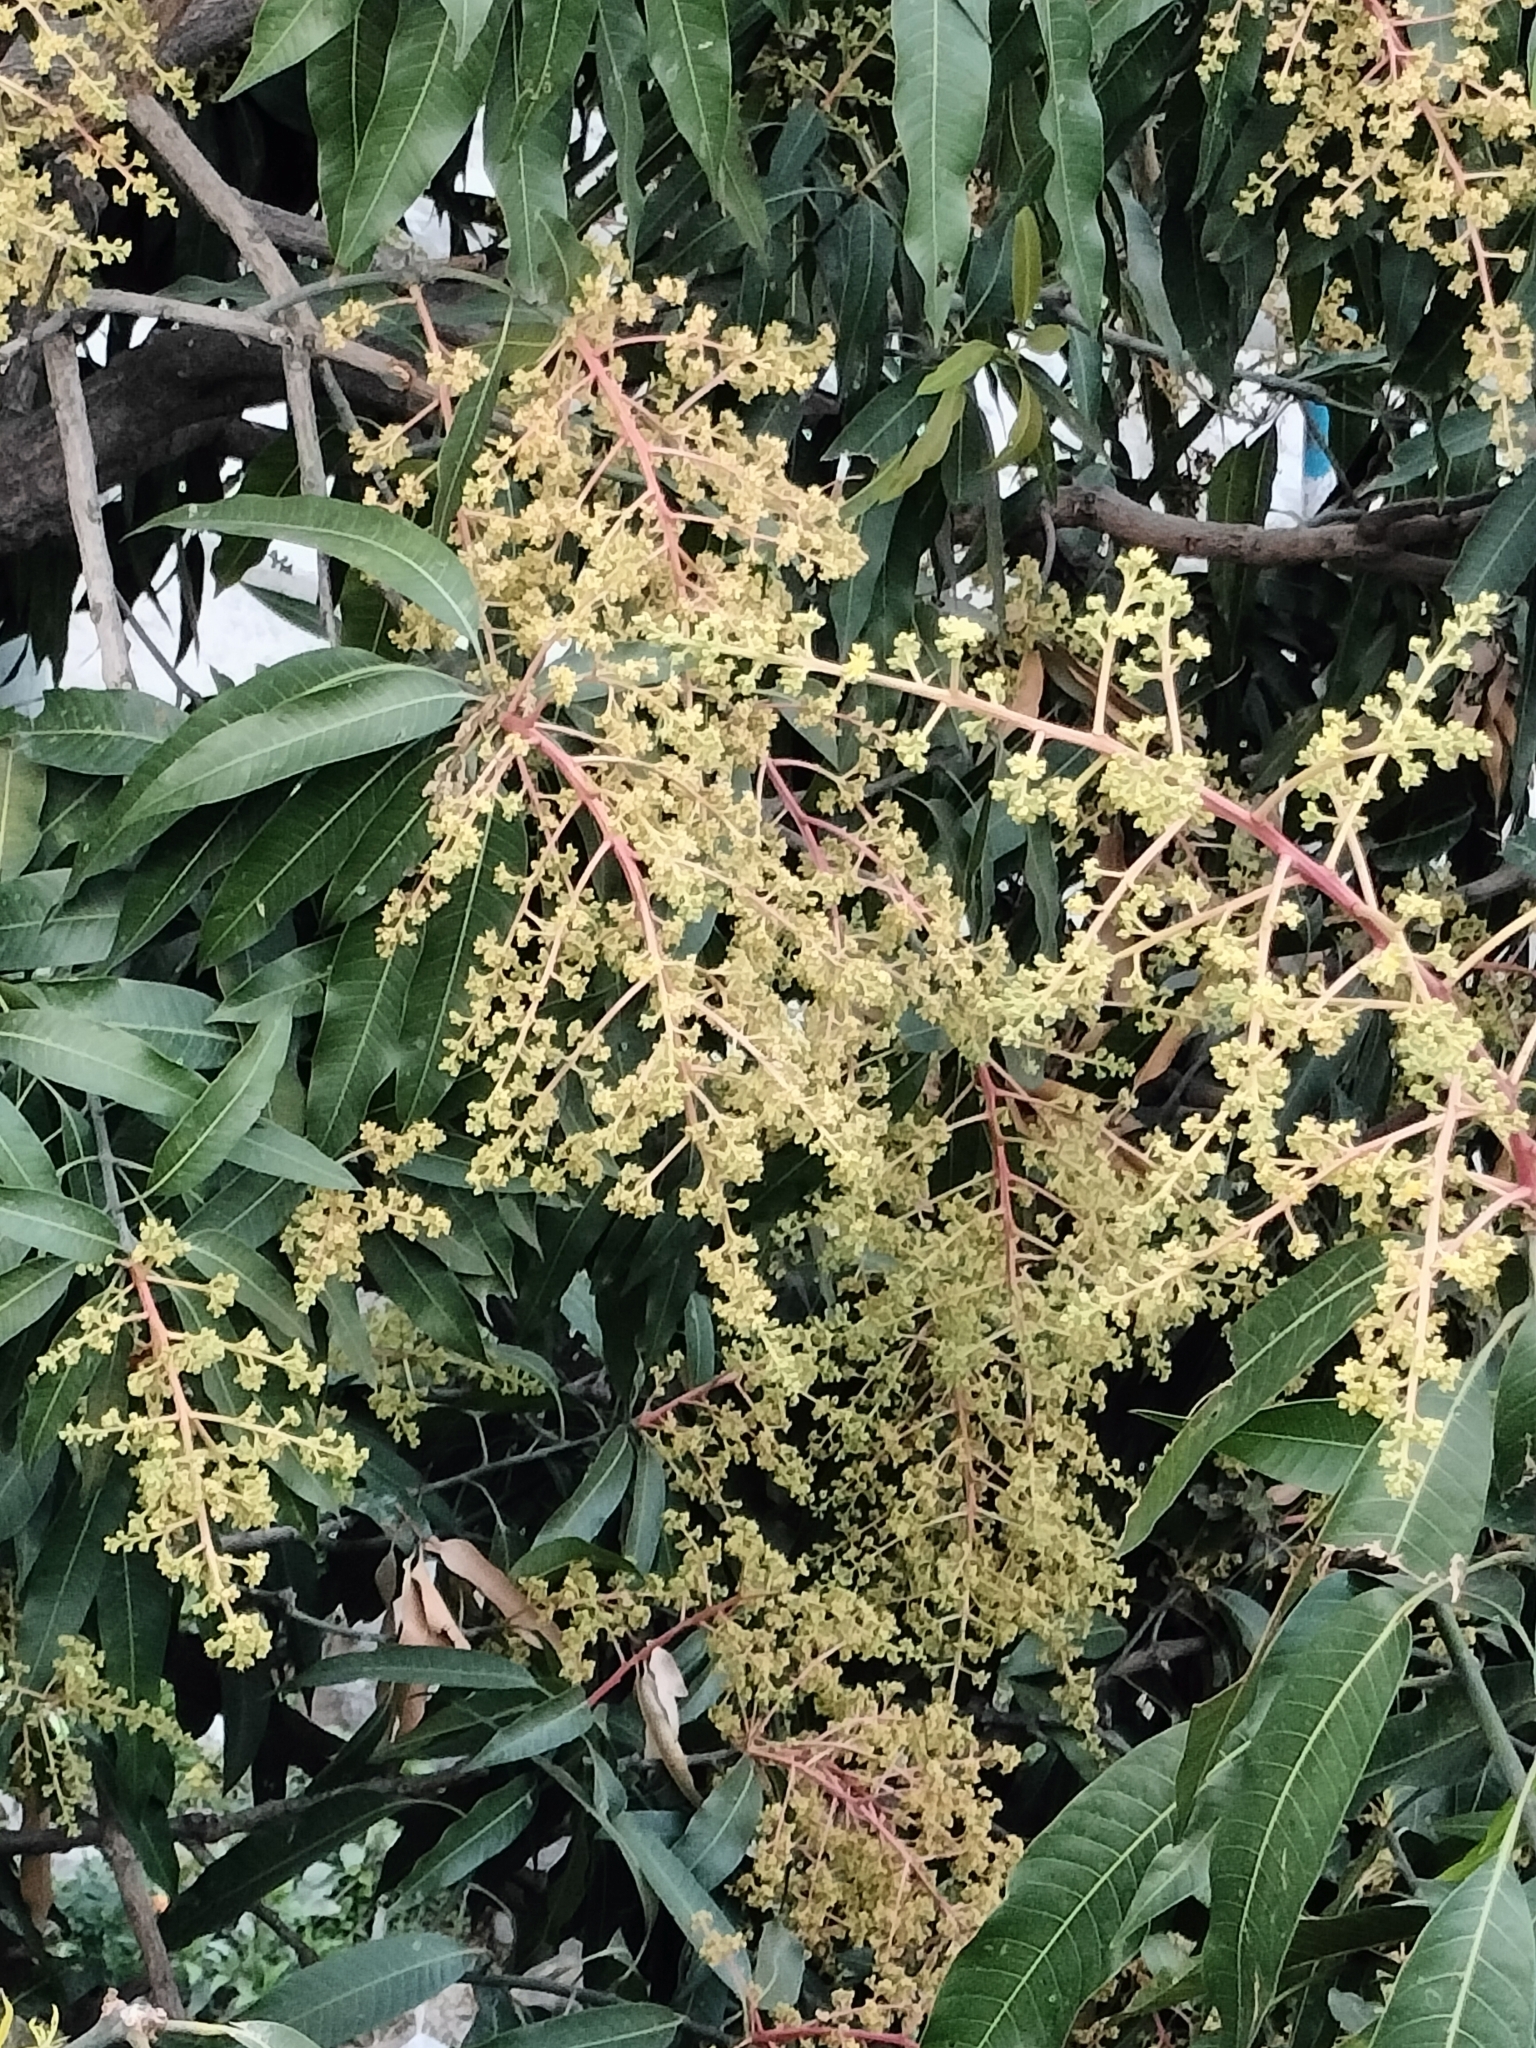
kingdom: Plantae
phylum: Tracheophyta
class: Magnoliopsida
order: Sapindales
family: Anacardiaceae
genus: Mangifera
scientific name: Mangifera indica
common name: Mango
